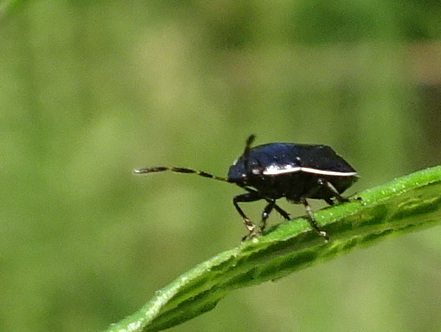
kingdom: Animalia
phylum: Arthropoda
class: Insecta
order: Hemiptera
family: Cydnidae
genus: Sehirus
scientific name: Sehirus cinctus
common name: White-margined burrower bug
